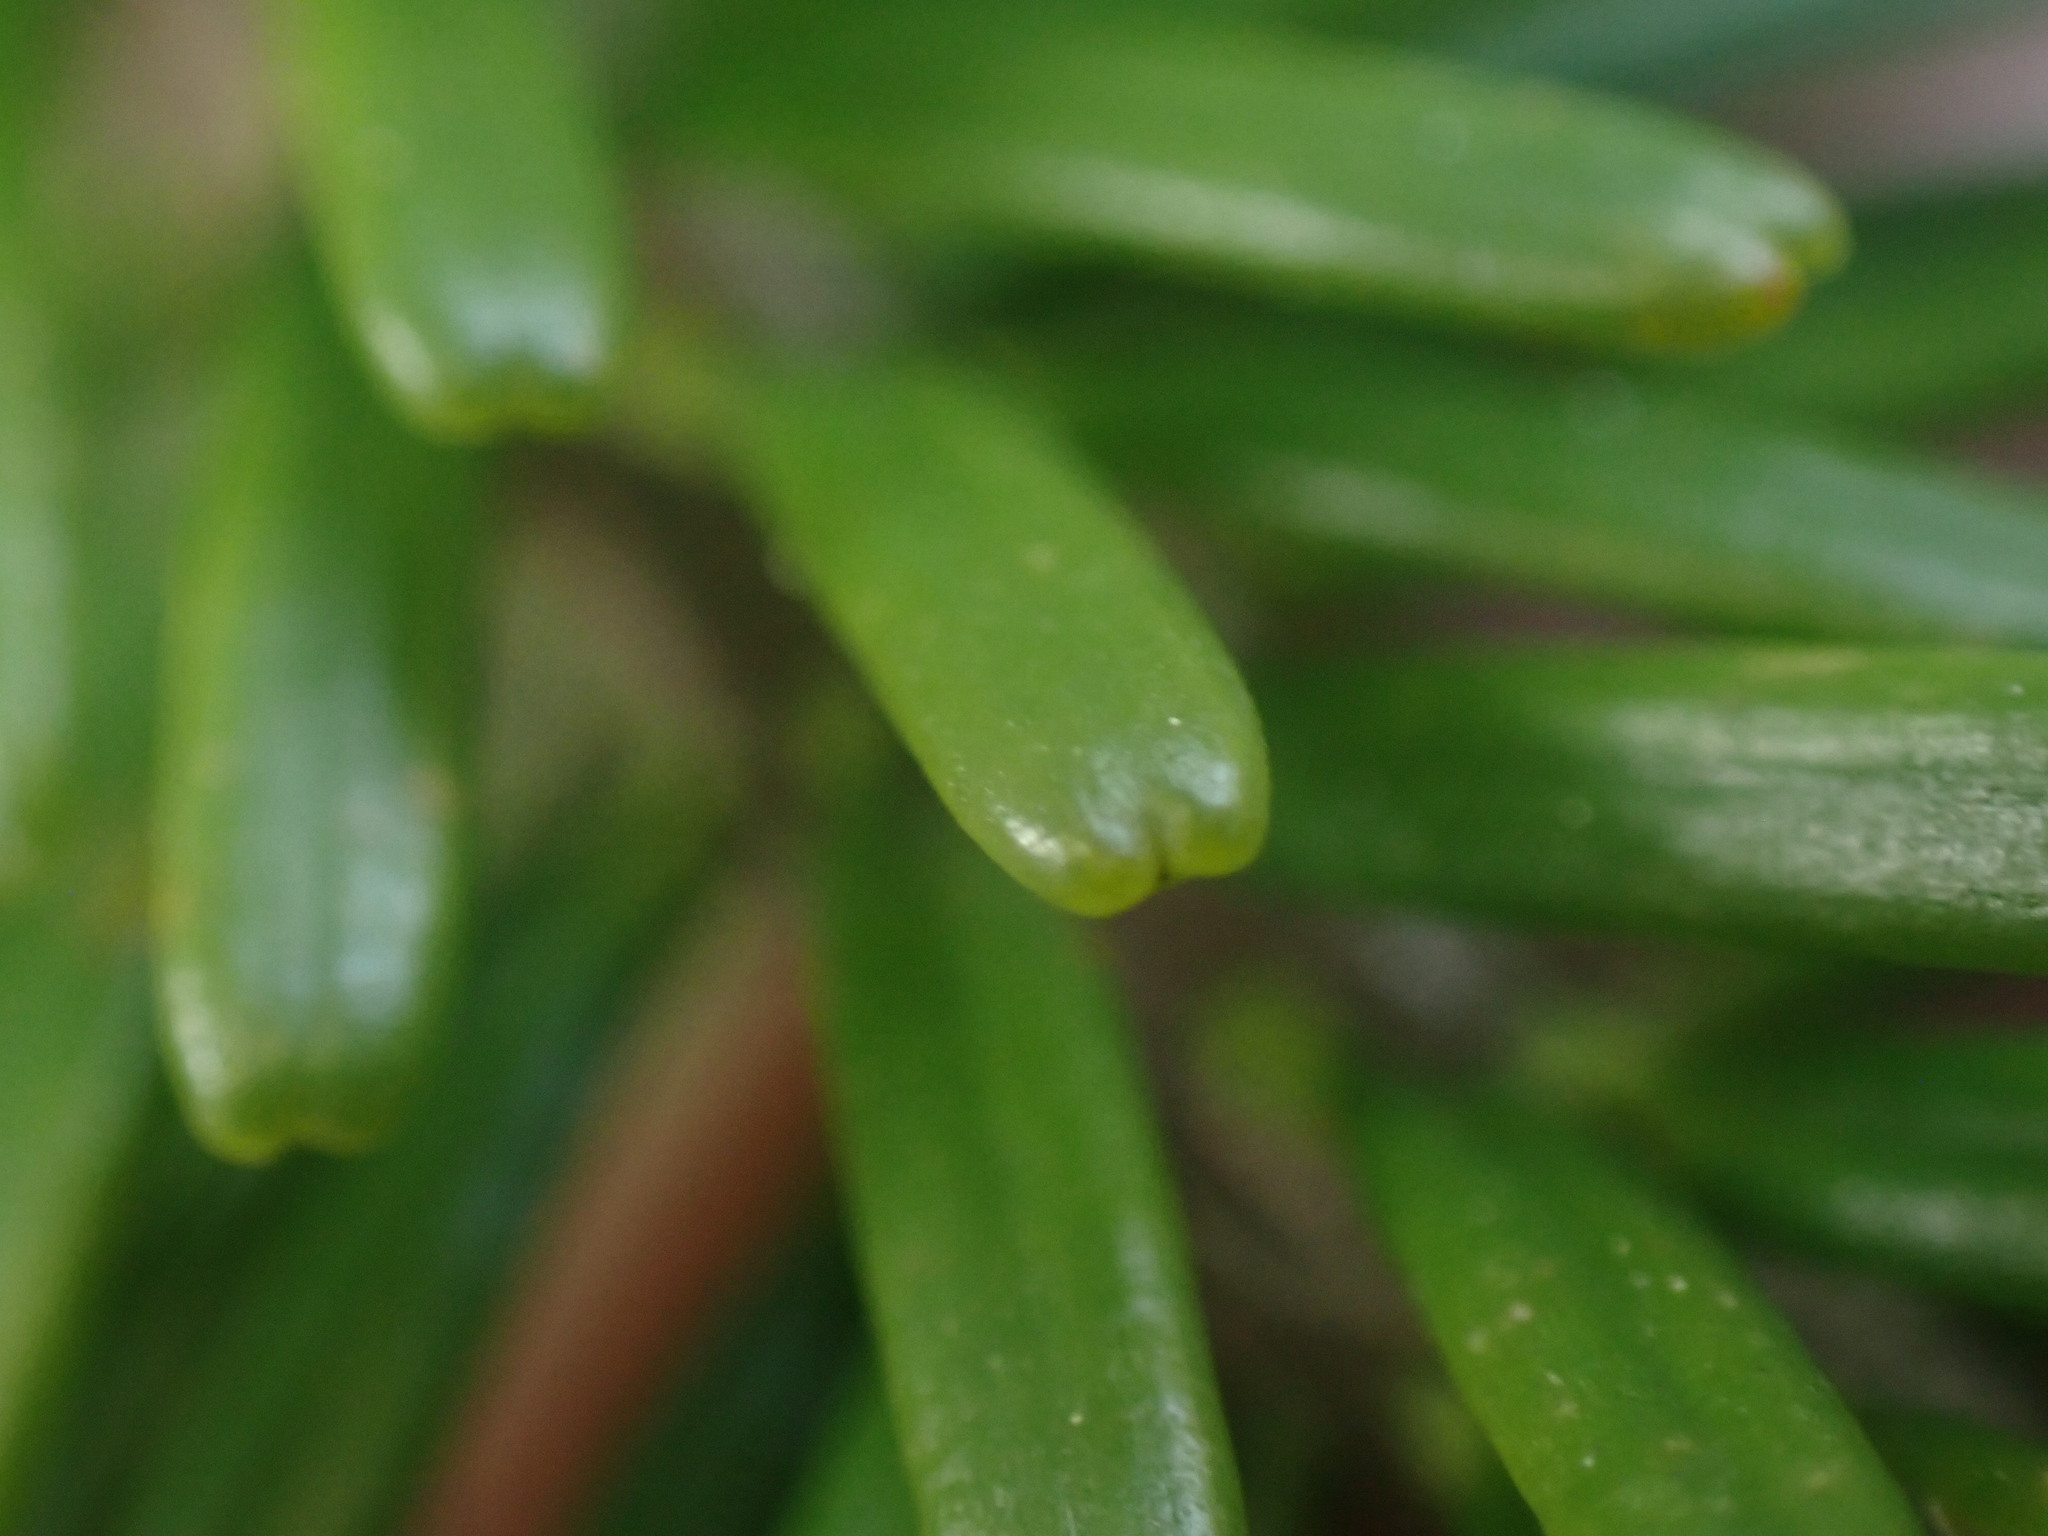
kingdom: Plantae
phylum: Tracheophyta
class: Pinopsida
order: Pinales
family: Pinaceae
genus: Abies
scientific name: Abies amabilis
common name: Pacific silver fir
